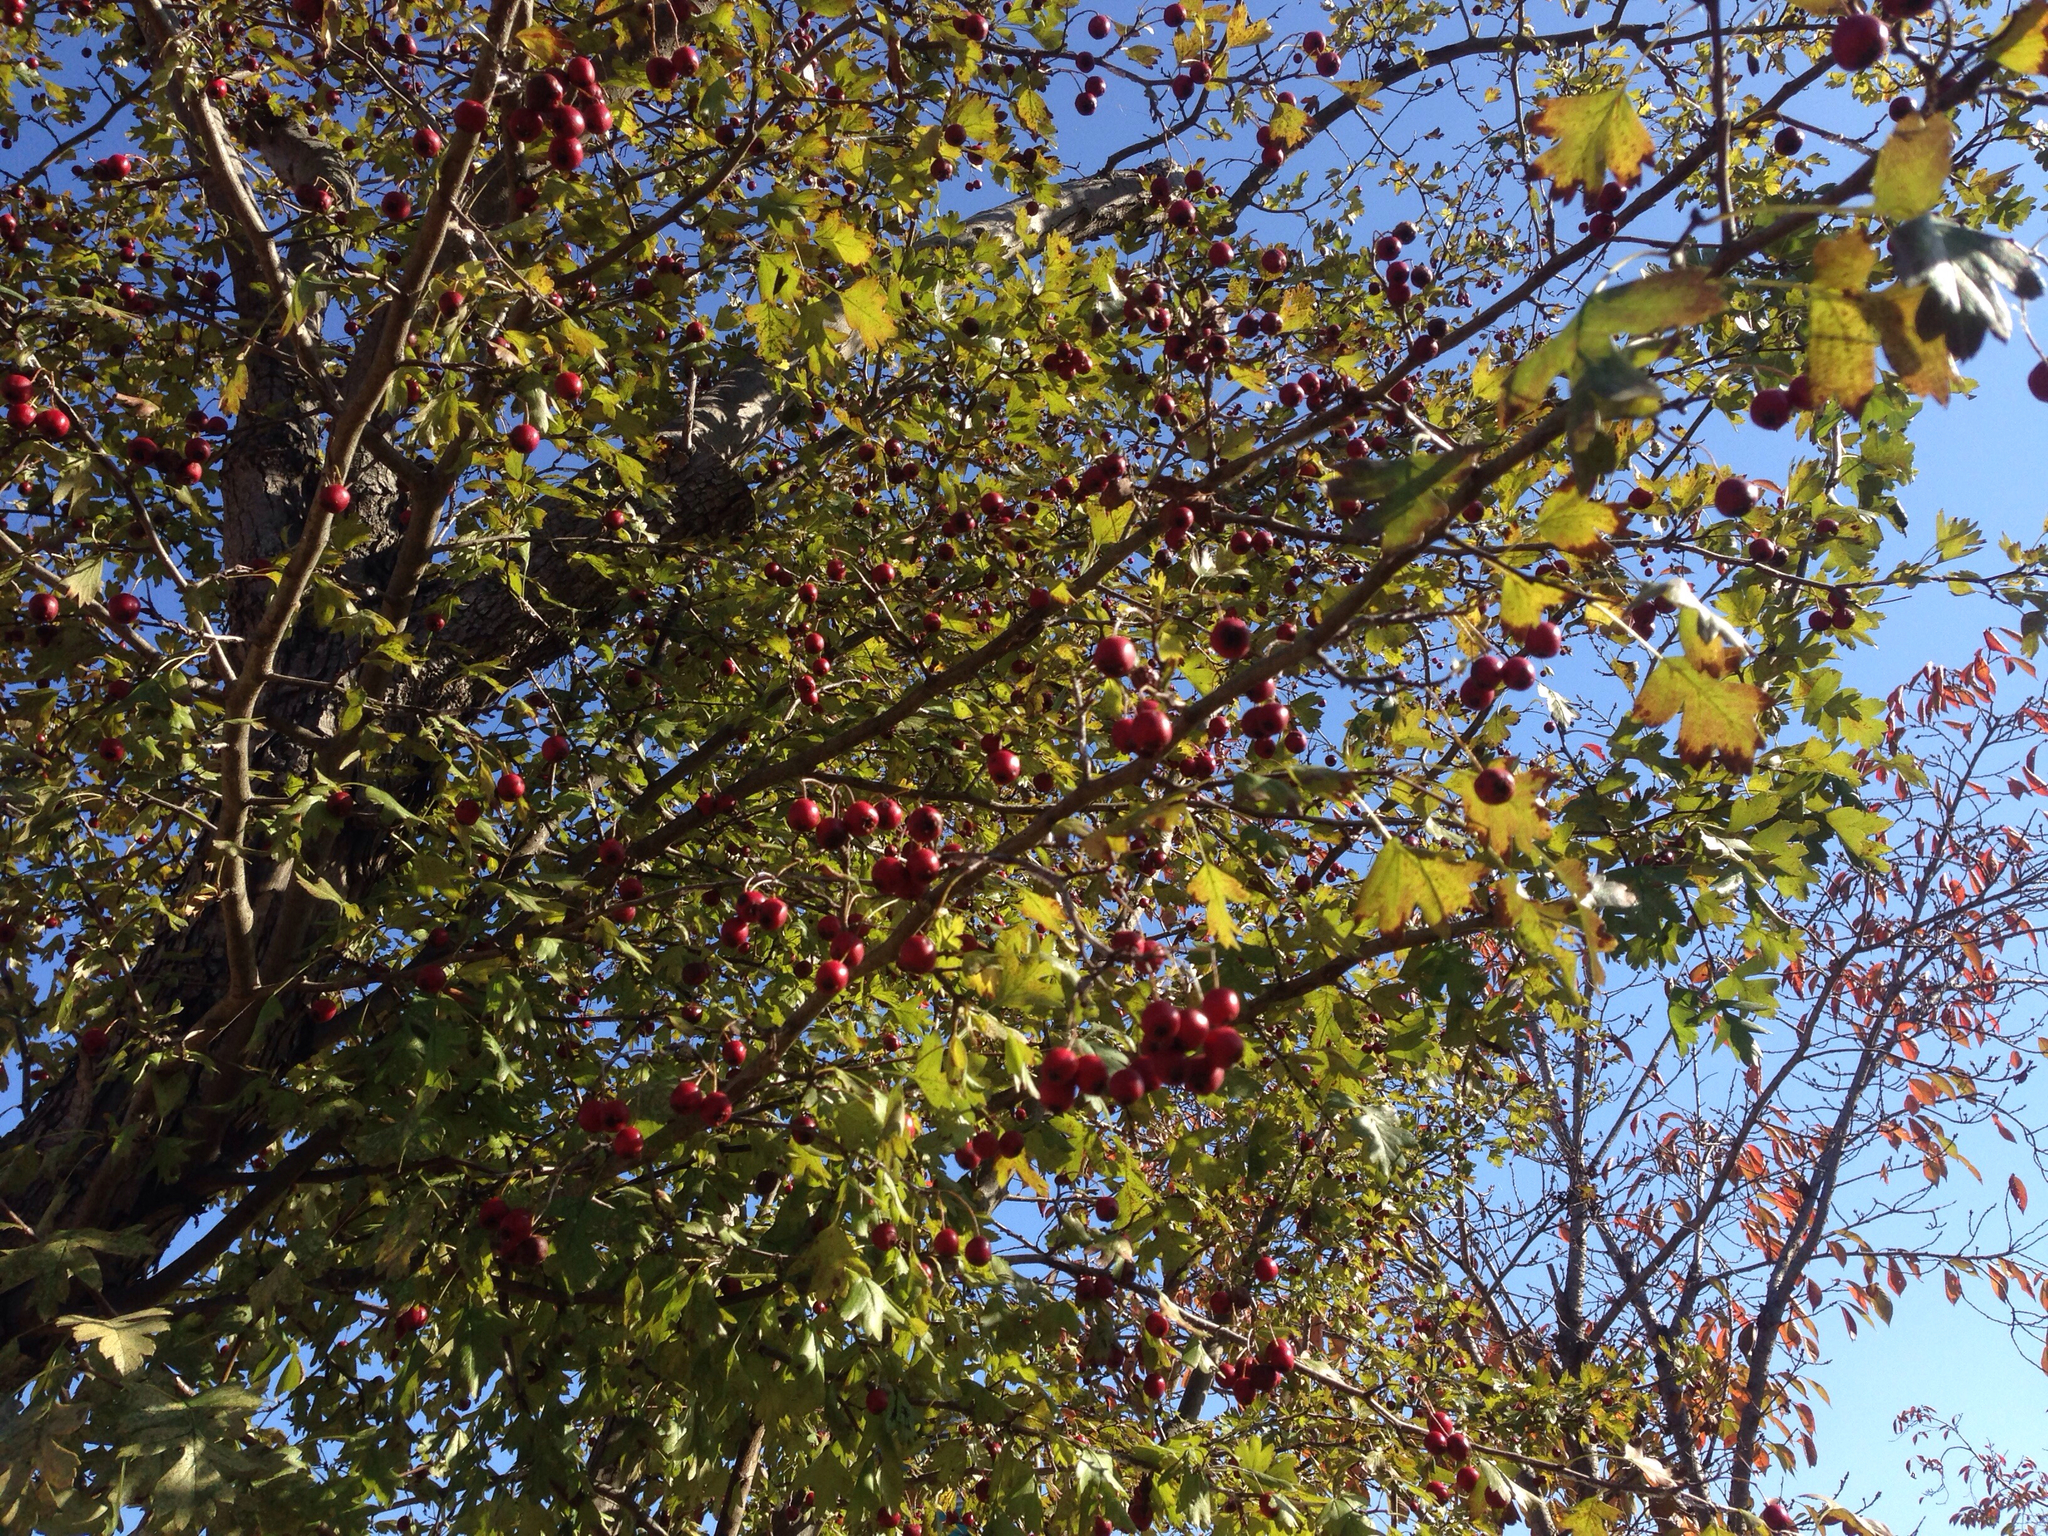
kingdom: Plantae
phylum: Tracheophyta
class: Magnoliopsida
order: Rosales
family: Rosaceae
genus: Crataegus
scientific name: Crataegus pinnatifida
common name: Chinese haw
